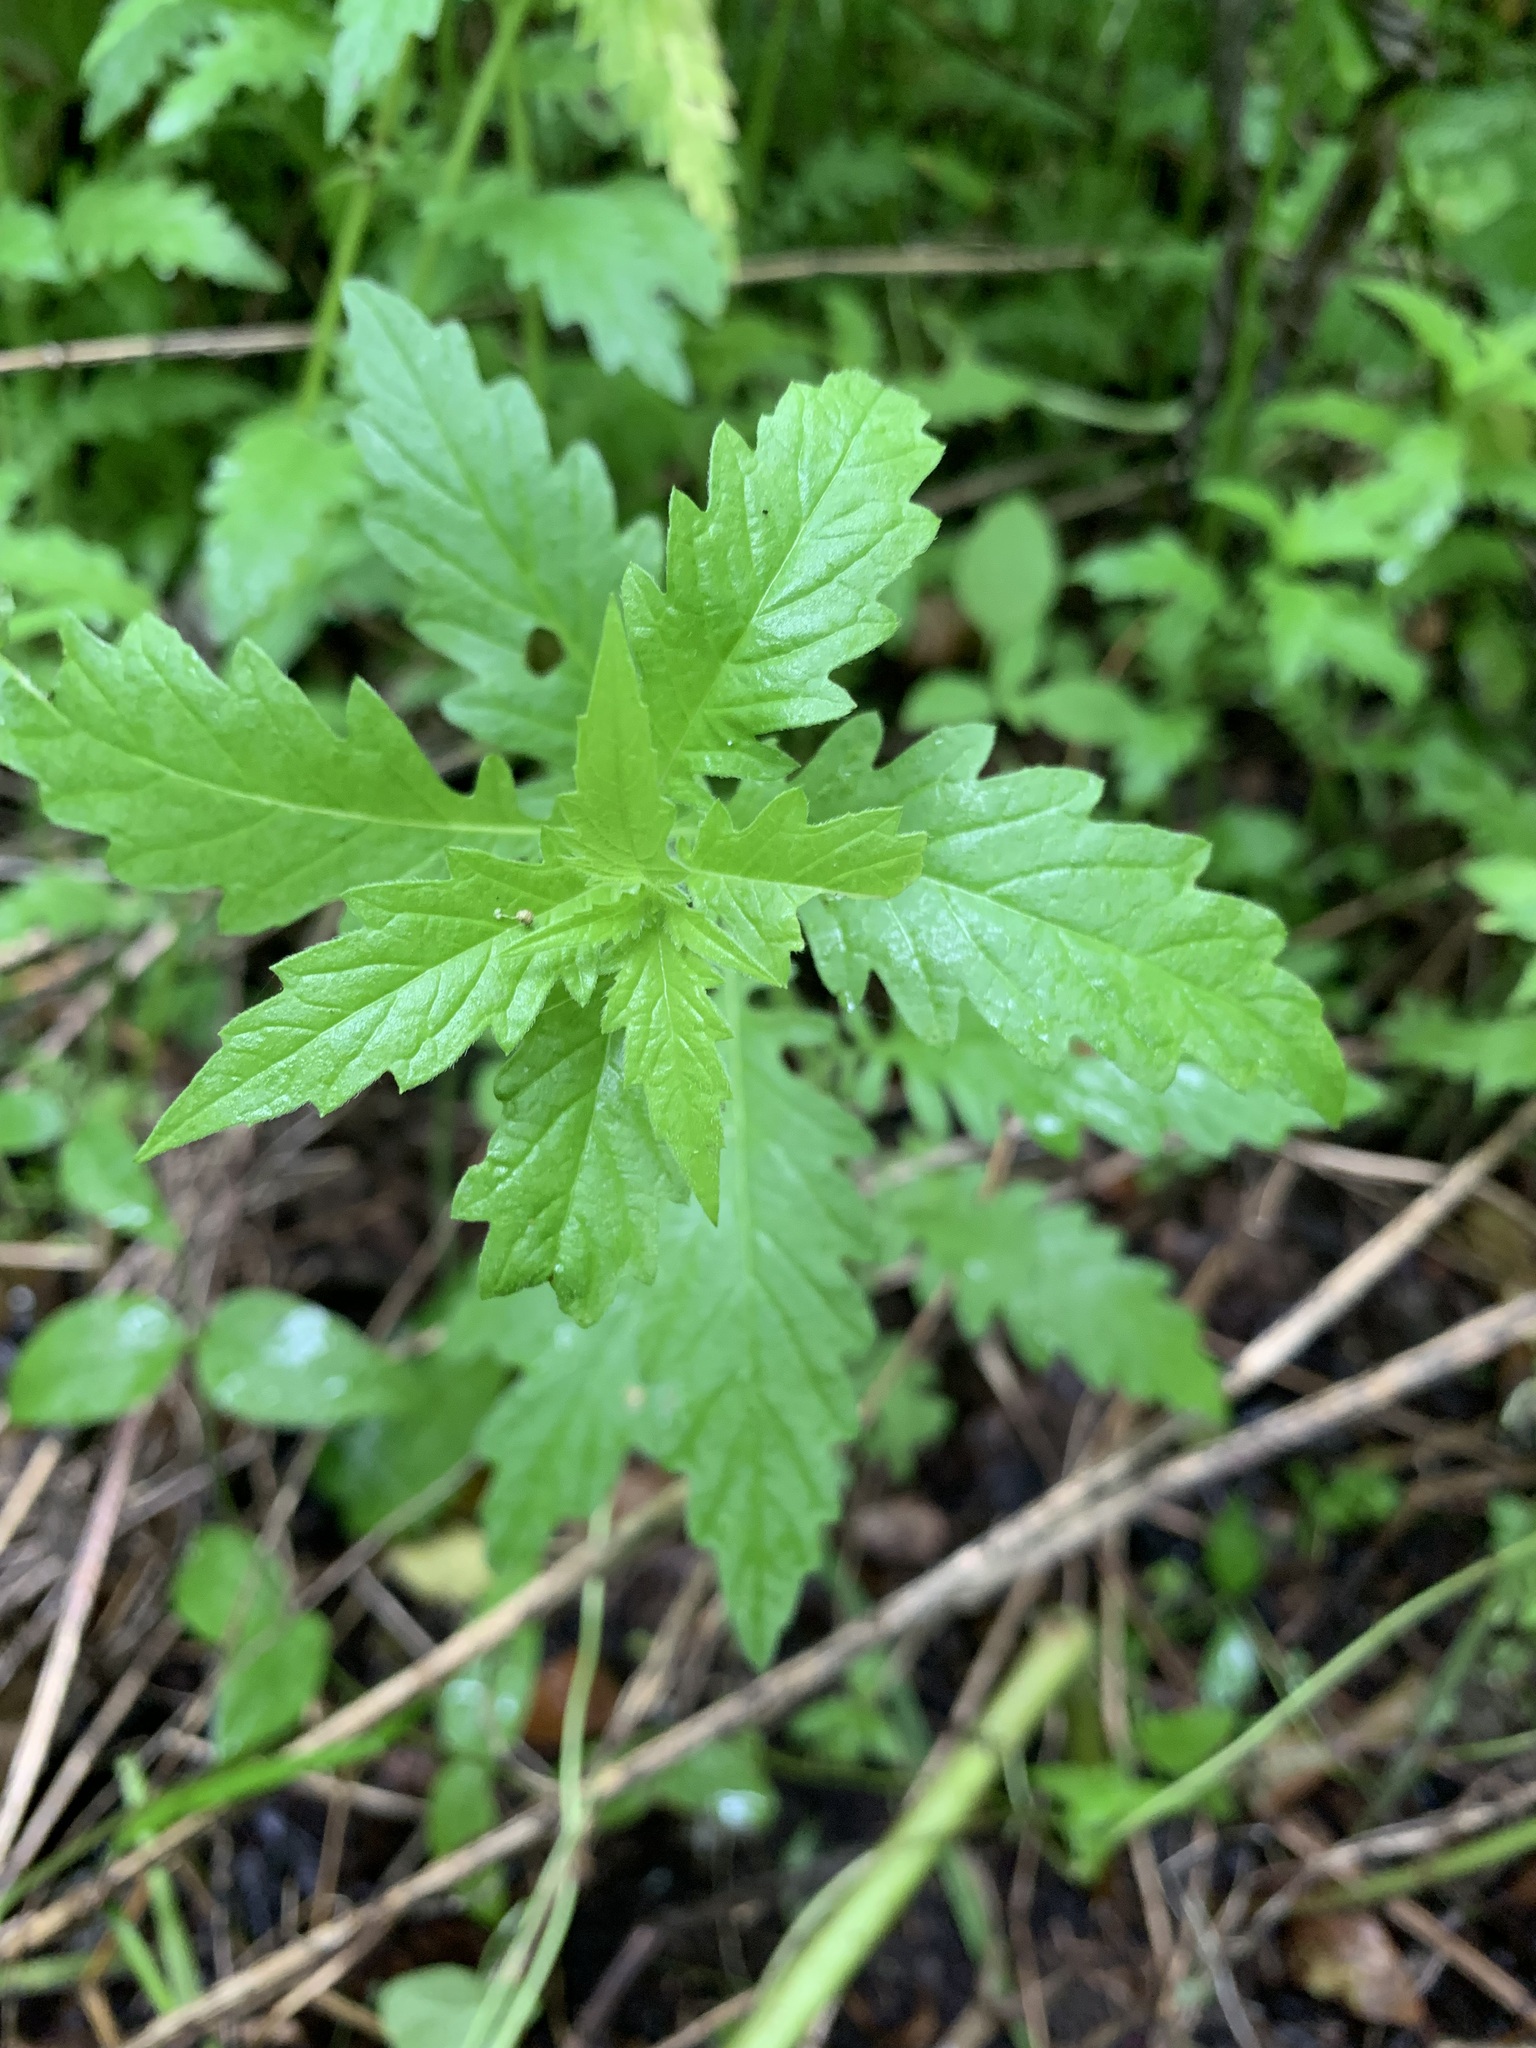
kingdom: Plantae
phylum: Tracheophyta
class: Magnoliopsida
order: Lamiales
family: Lamiaceae
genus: Lycopus
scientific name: Lycopus europaeus
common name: European bugleweed
